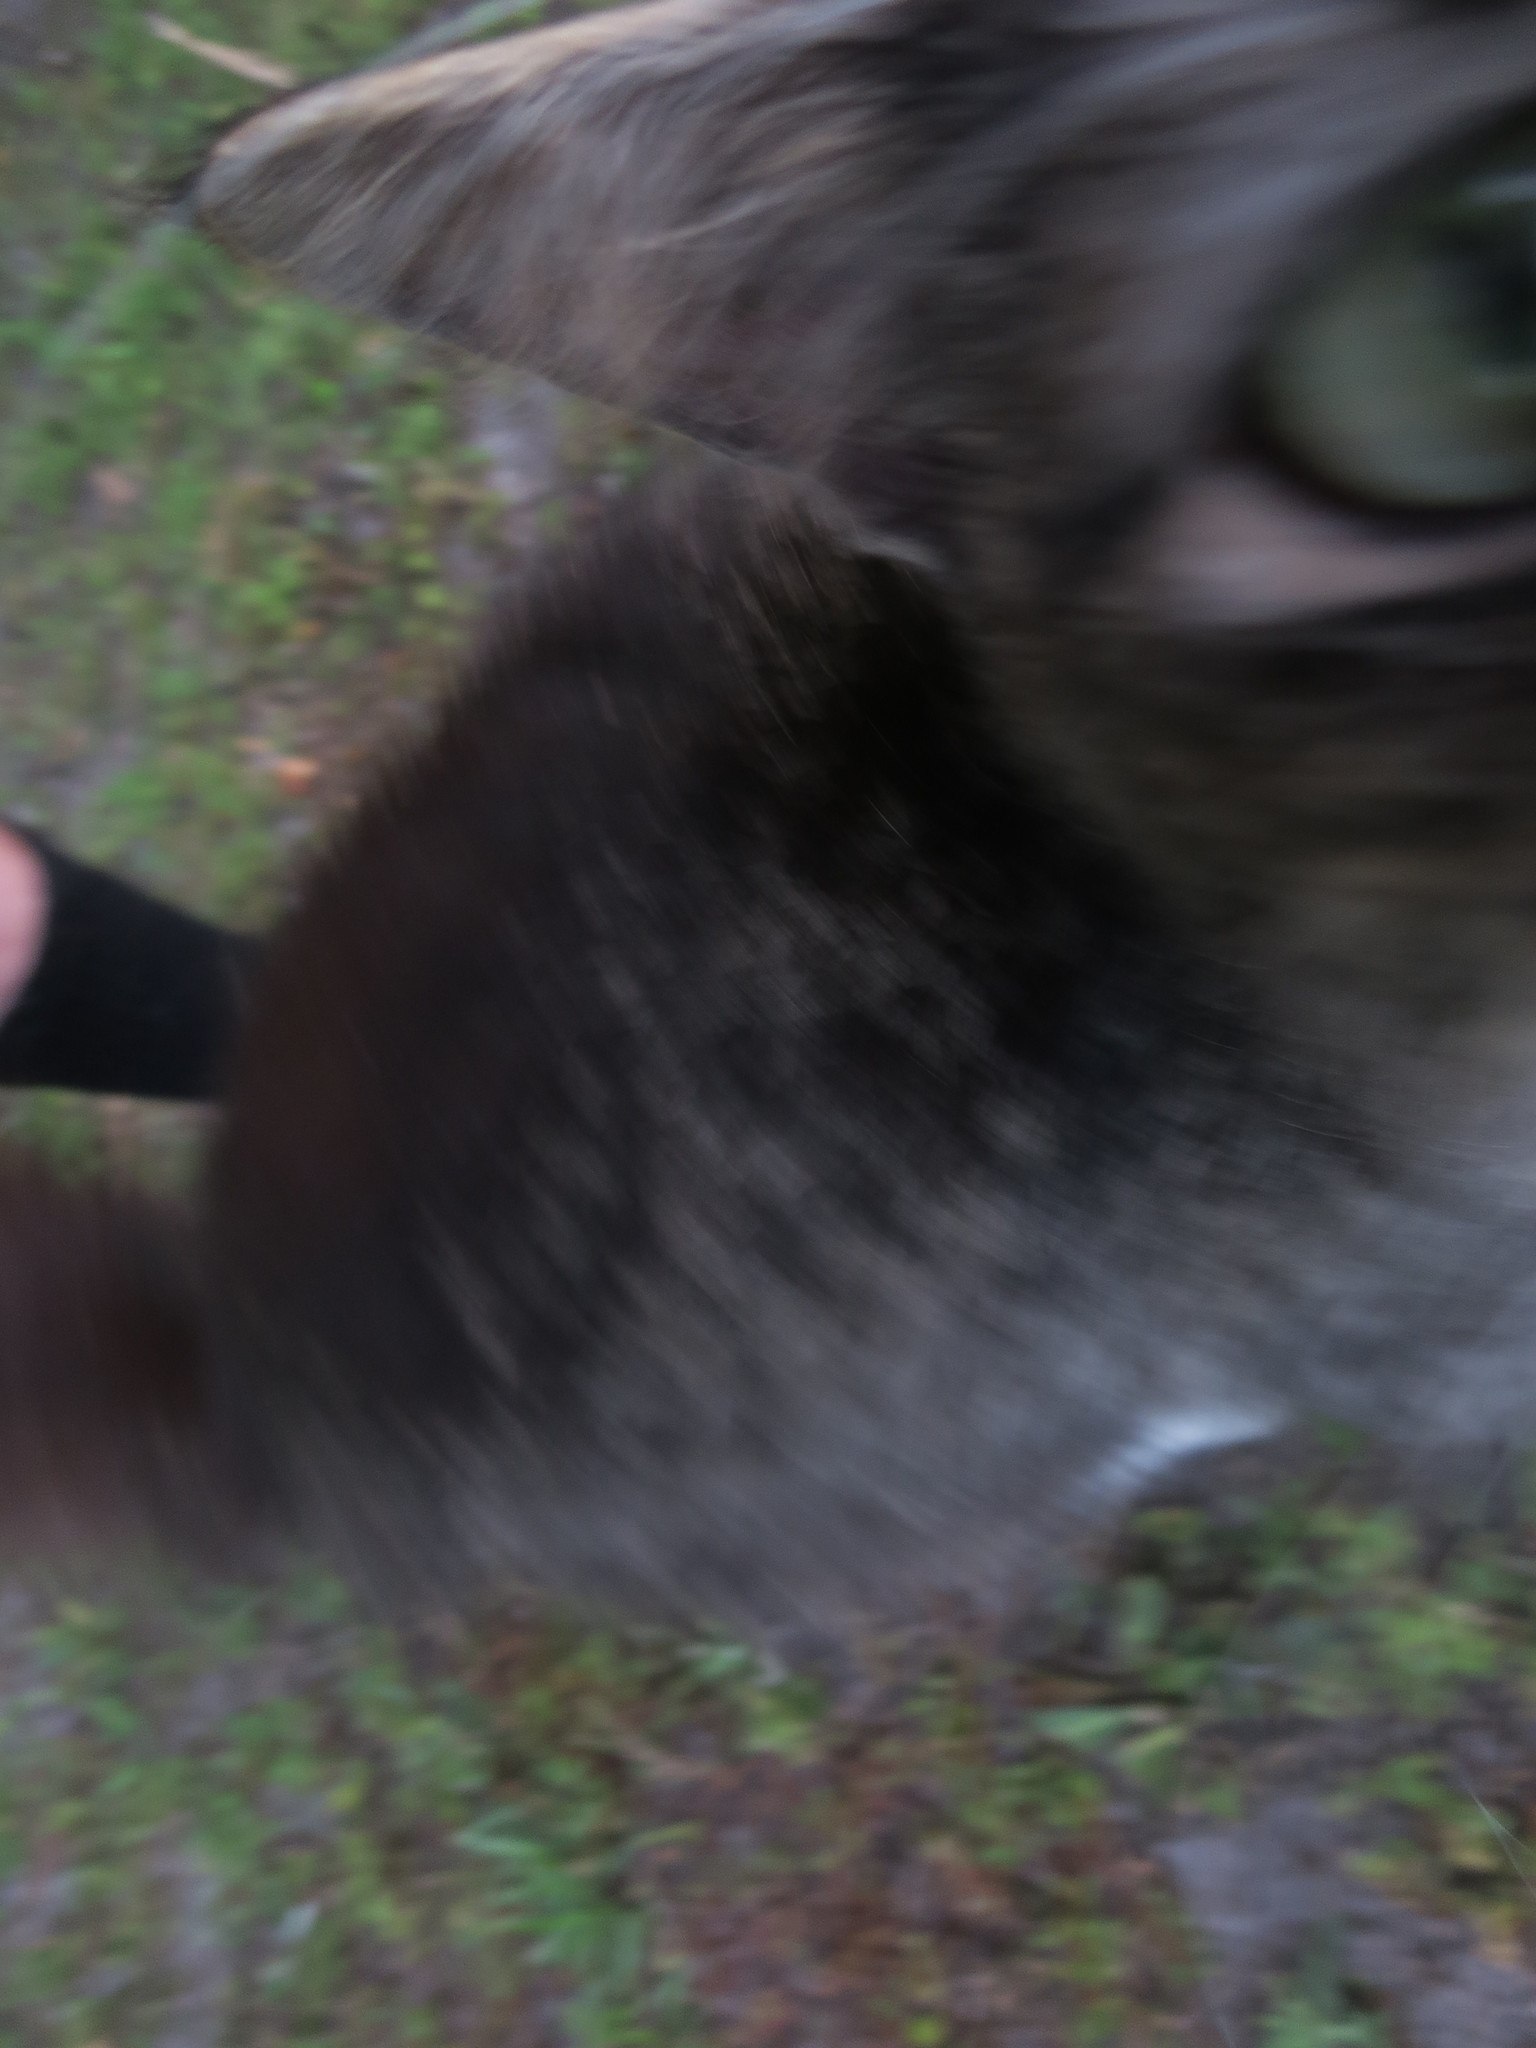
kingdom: Animalia
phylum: Chordata
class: Mammalia
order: Carnivora
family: Felidae
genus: Felis
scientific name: Felis catus
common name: Domestic cat
